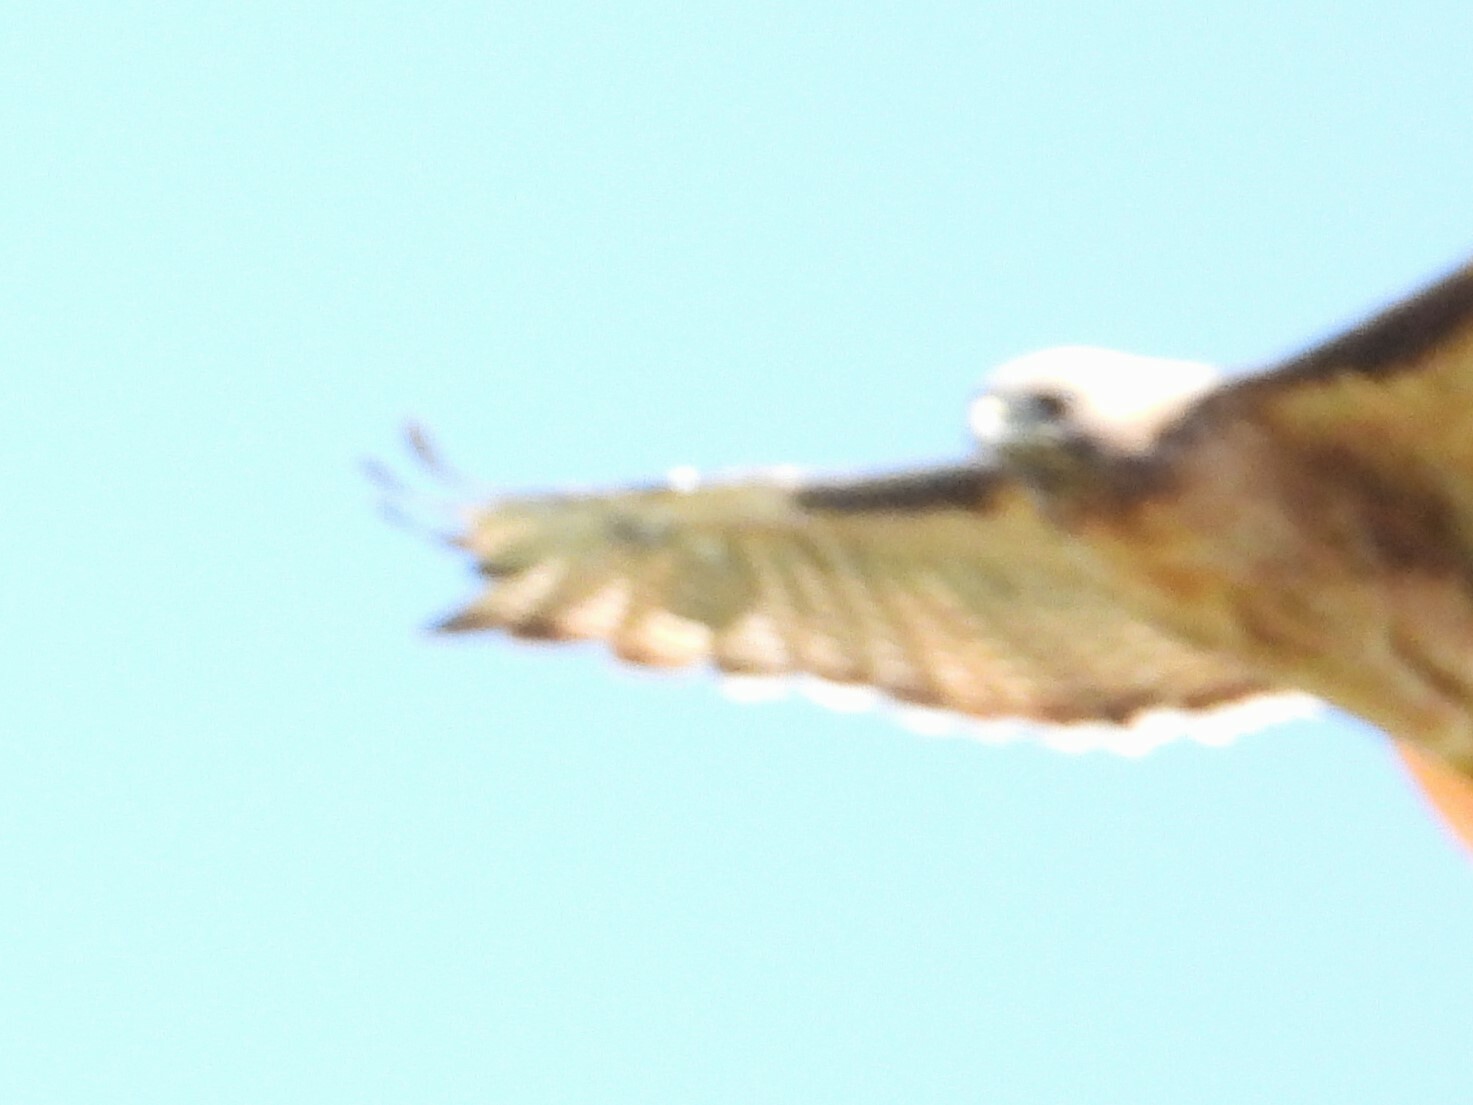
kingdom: Animalia
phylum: Chordata
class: Aves
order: Accipitriformes
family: Accipitridae
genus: Buteo
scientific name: Buteo jamaicensis
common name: Red-tailed hawk
